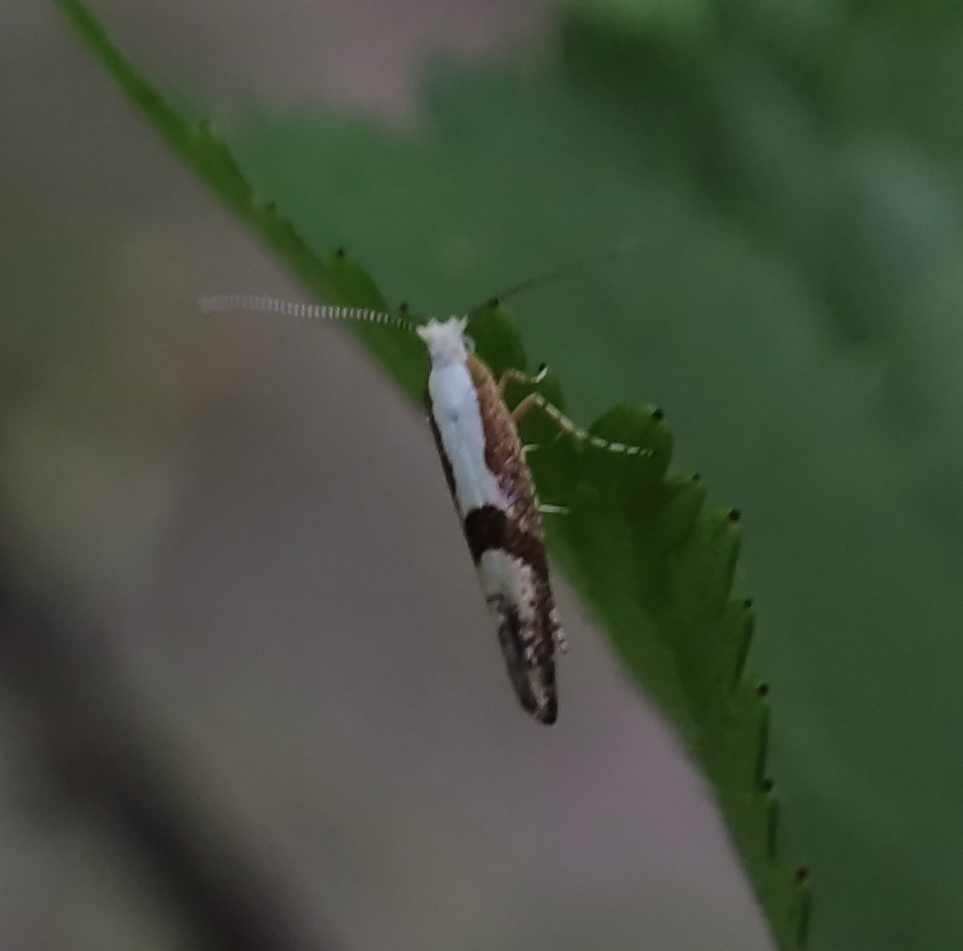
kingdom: Animalia
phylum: Arthropoda
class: Insecta
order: Lepidoptera
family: Argyresthiidae
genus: Argyresthia
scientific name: Argyresthia pruniella
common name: Cherry fruit moth
